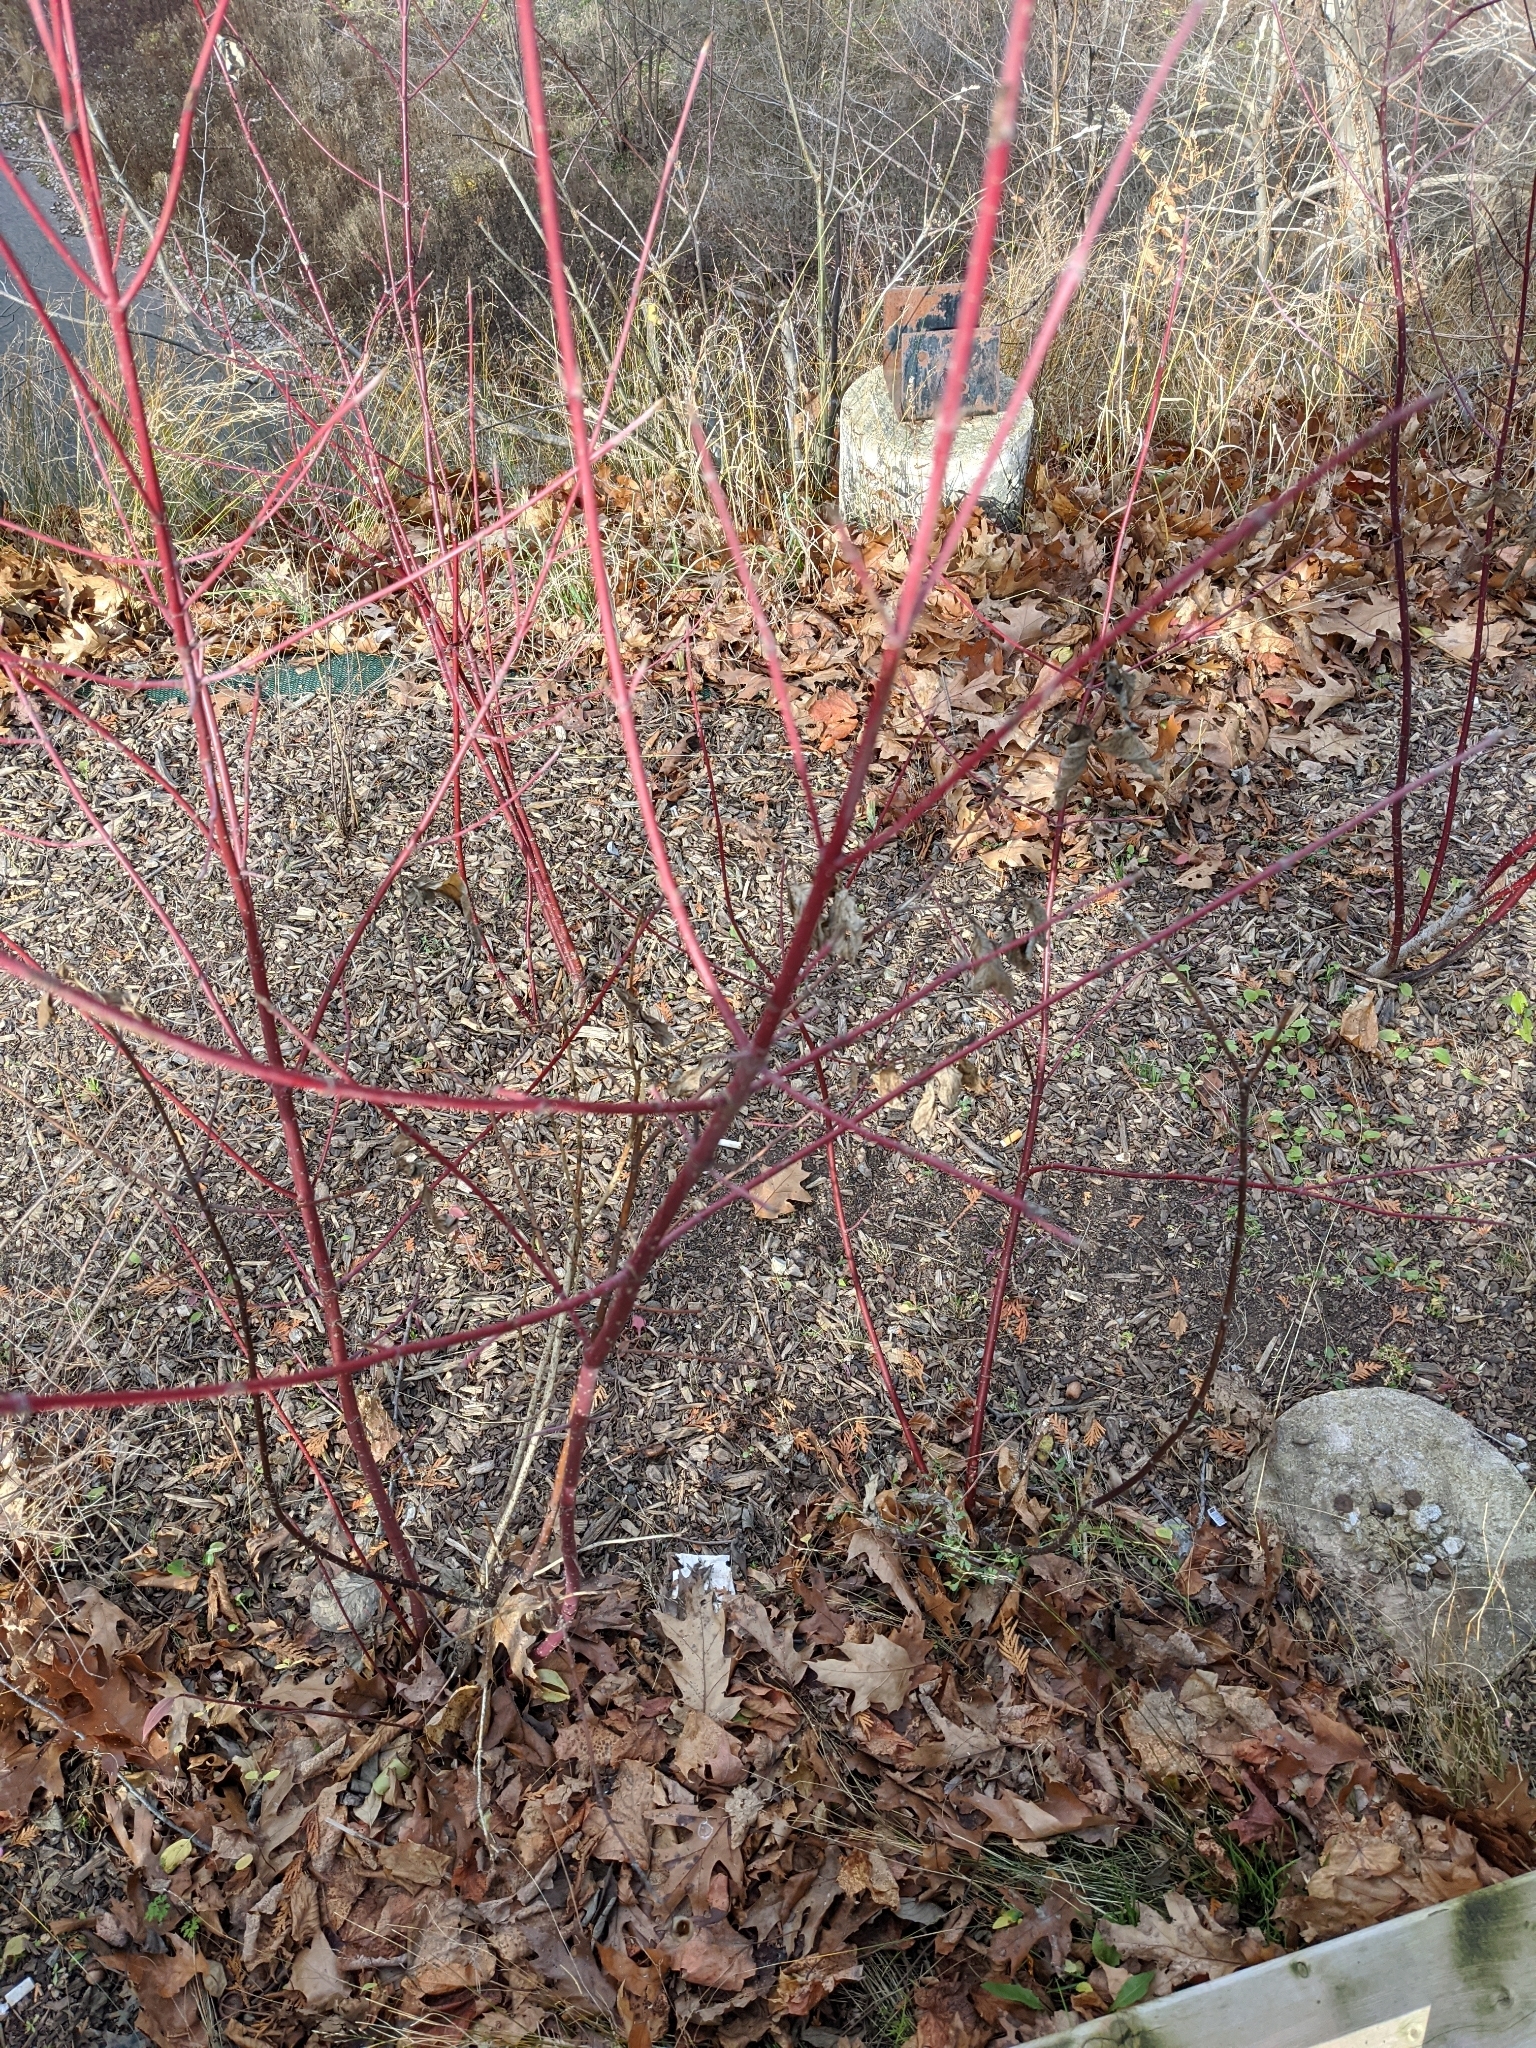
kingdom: Plantae
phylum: Tracheophyta
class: Magnoliopsida
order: Cornales
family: Cornaceae
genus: Cornus
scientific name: Cornus sericea
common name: Red-osier dogwood
